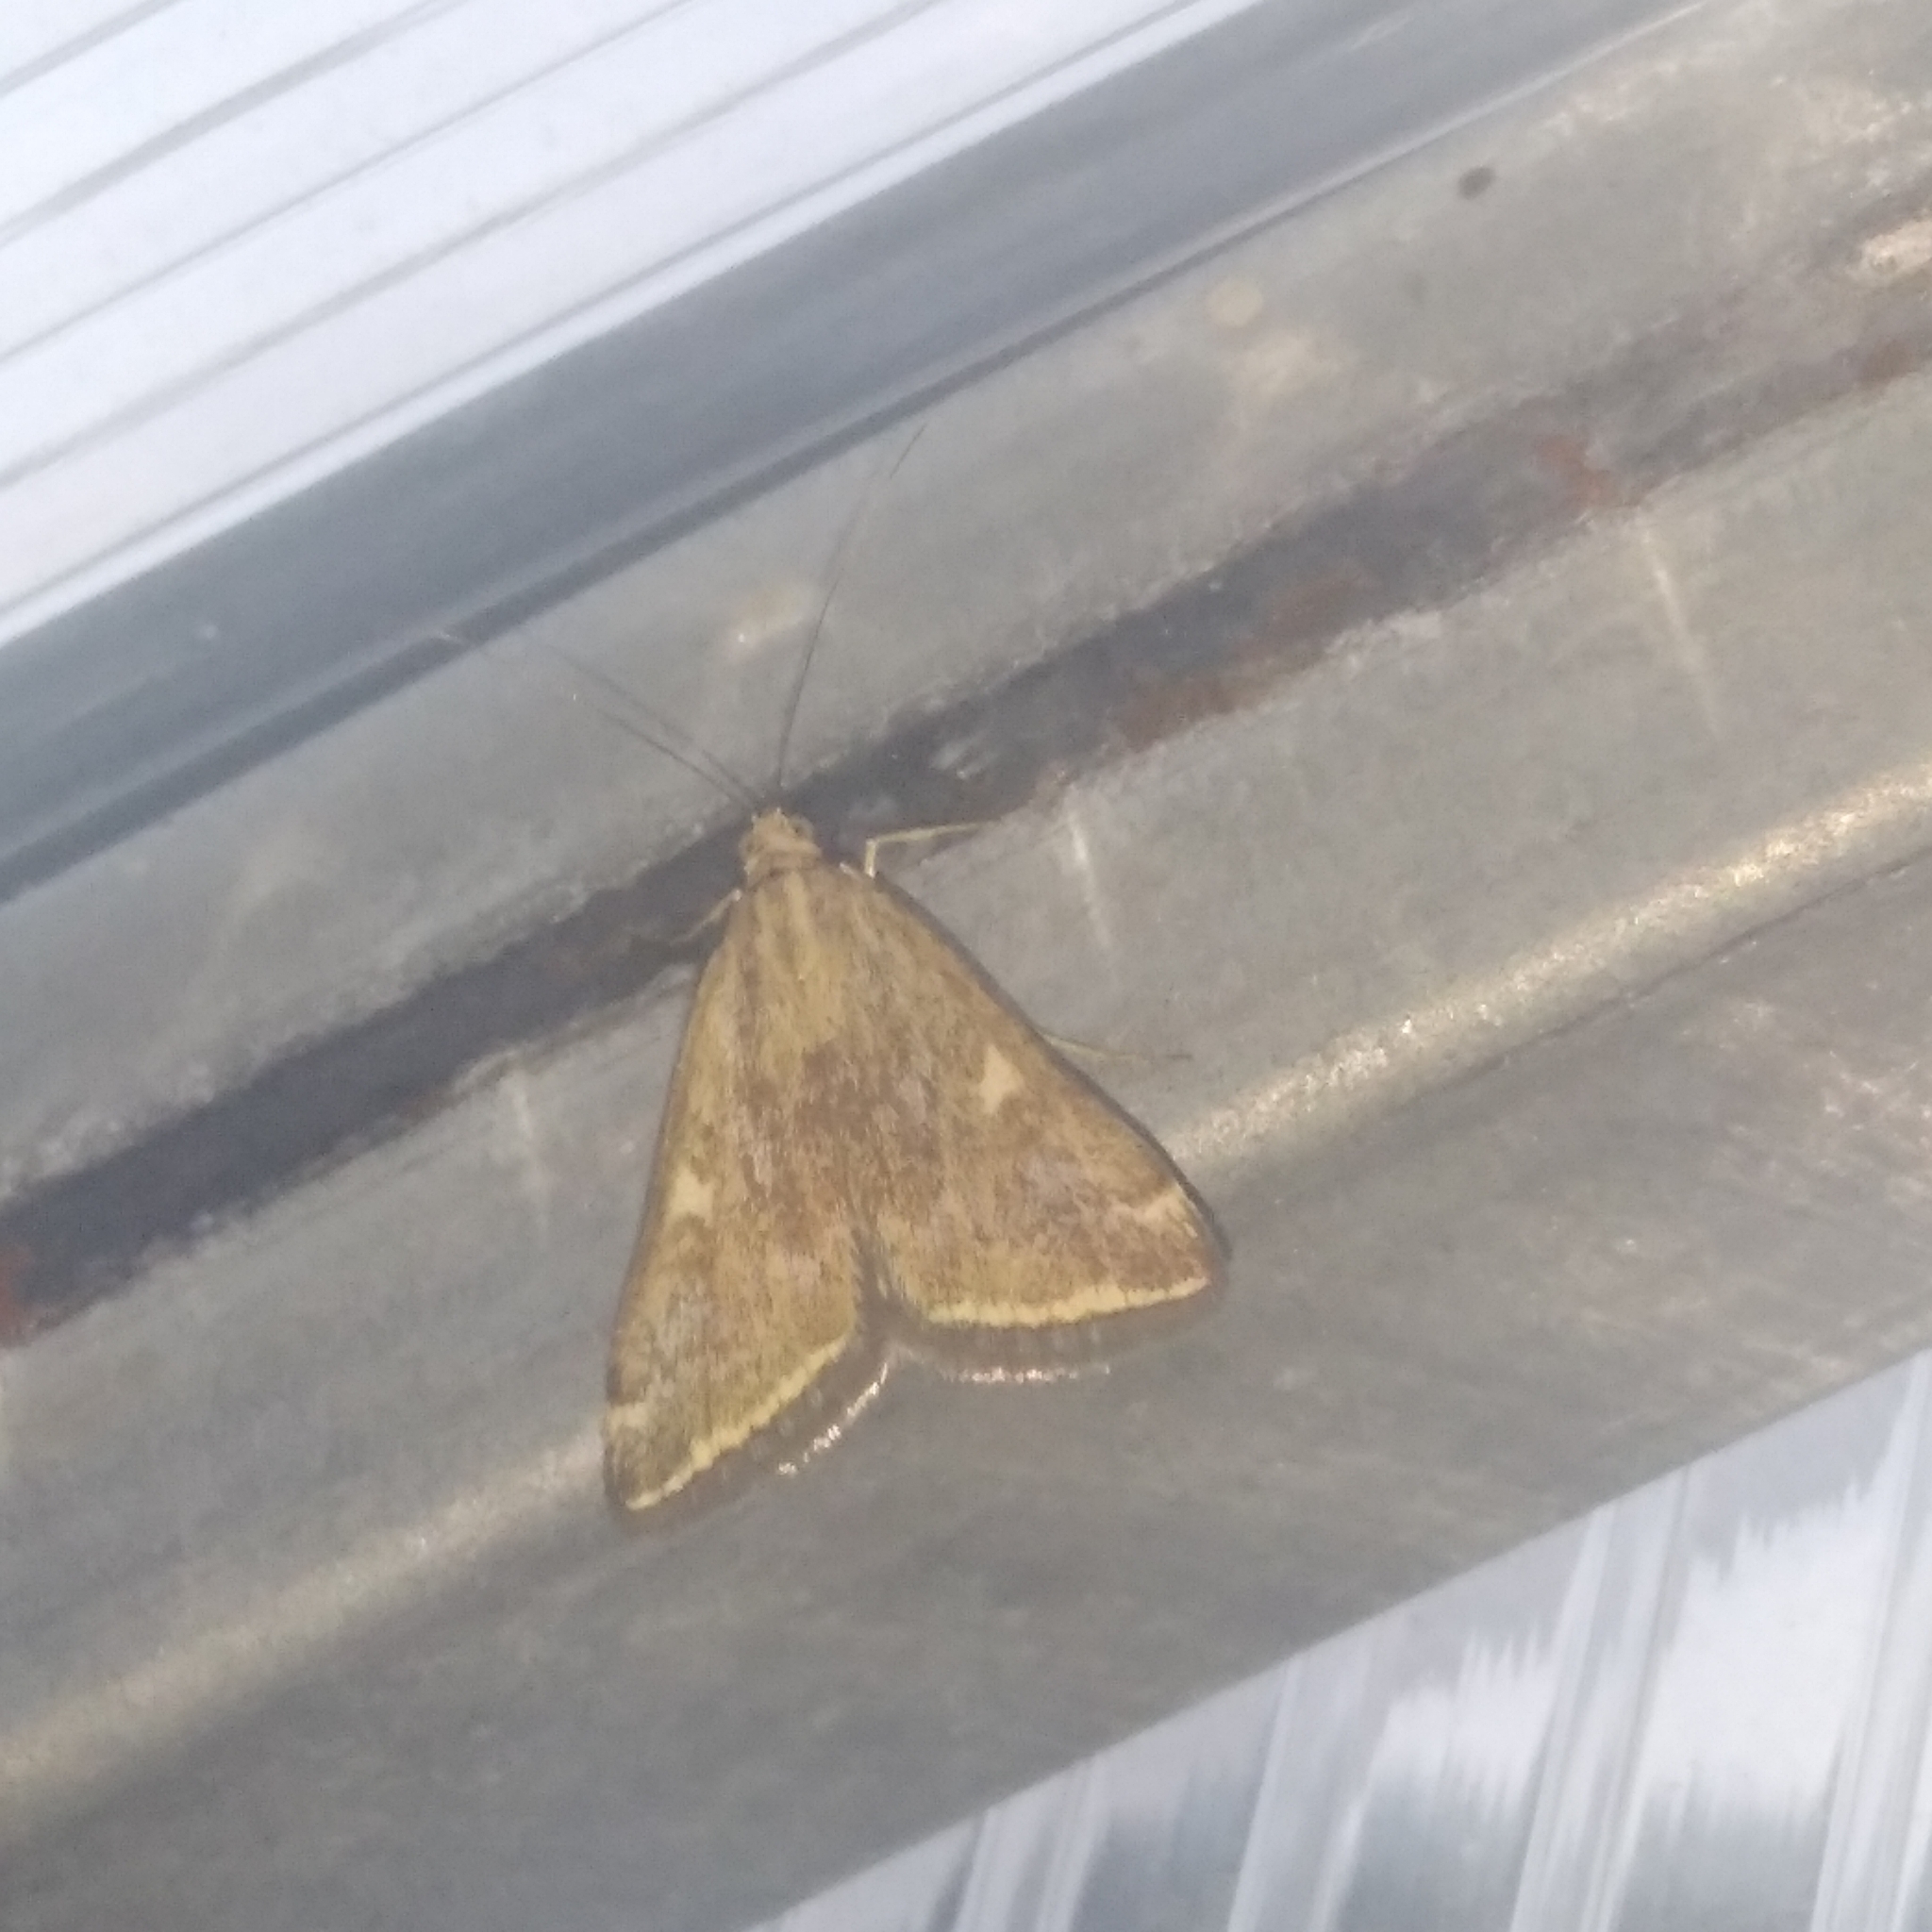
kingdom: Animalia
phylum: Arthropoda
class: Insecta
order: Lepidoptera
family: Crambidae
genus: Loxostege
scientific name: Loxostege sticticalis
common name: Crambid moth
